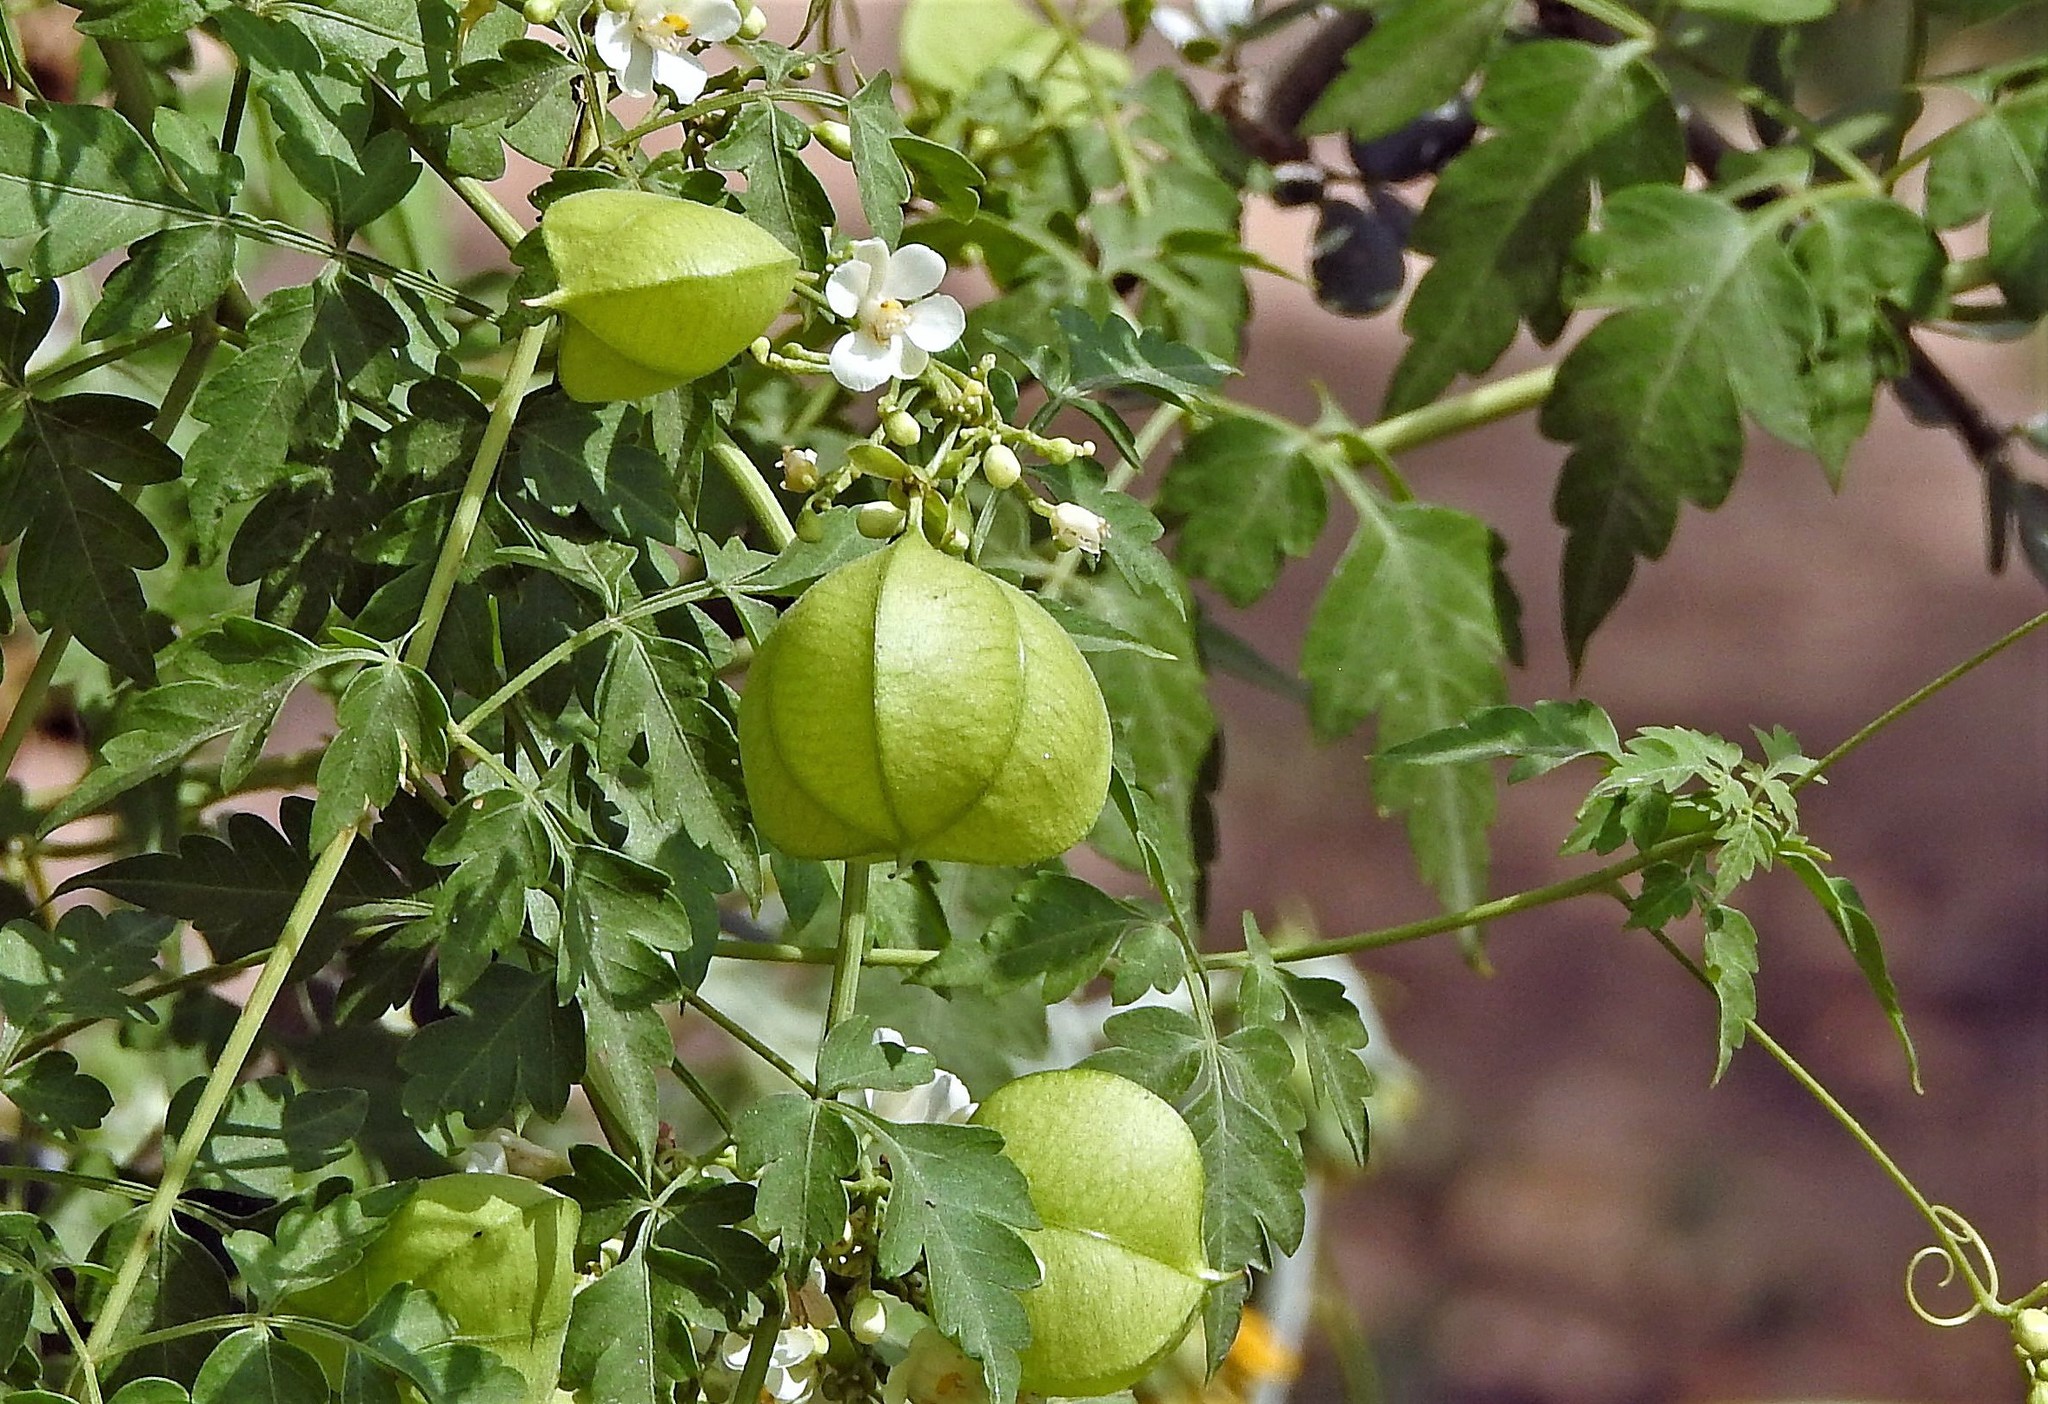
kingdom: Plantae
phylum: Tracheophyta
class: Magnoliopsida
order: Sapindales
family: Sapindaceae
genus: Cardiospermum
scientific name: Cardiospermum grandiflorum
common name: Balloon vine
